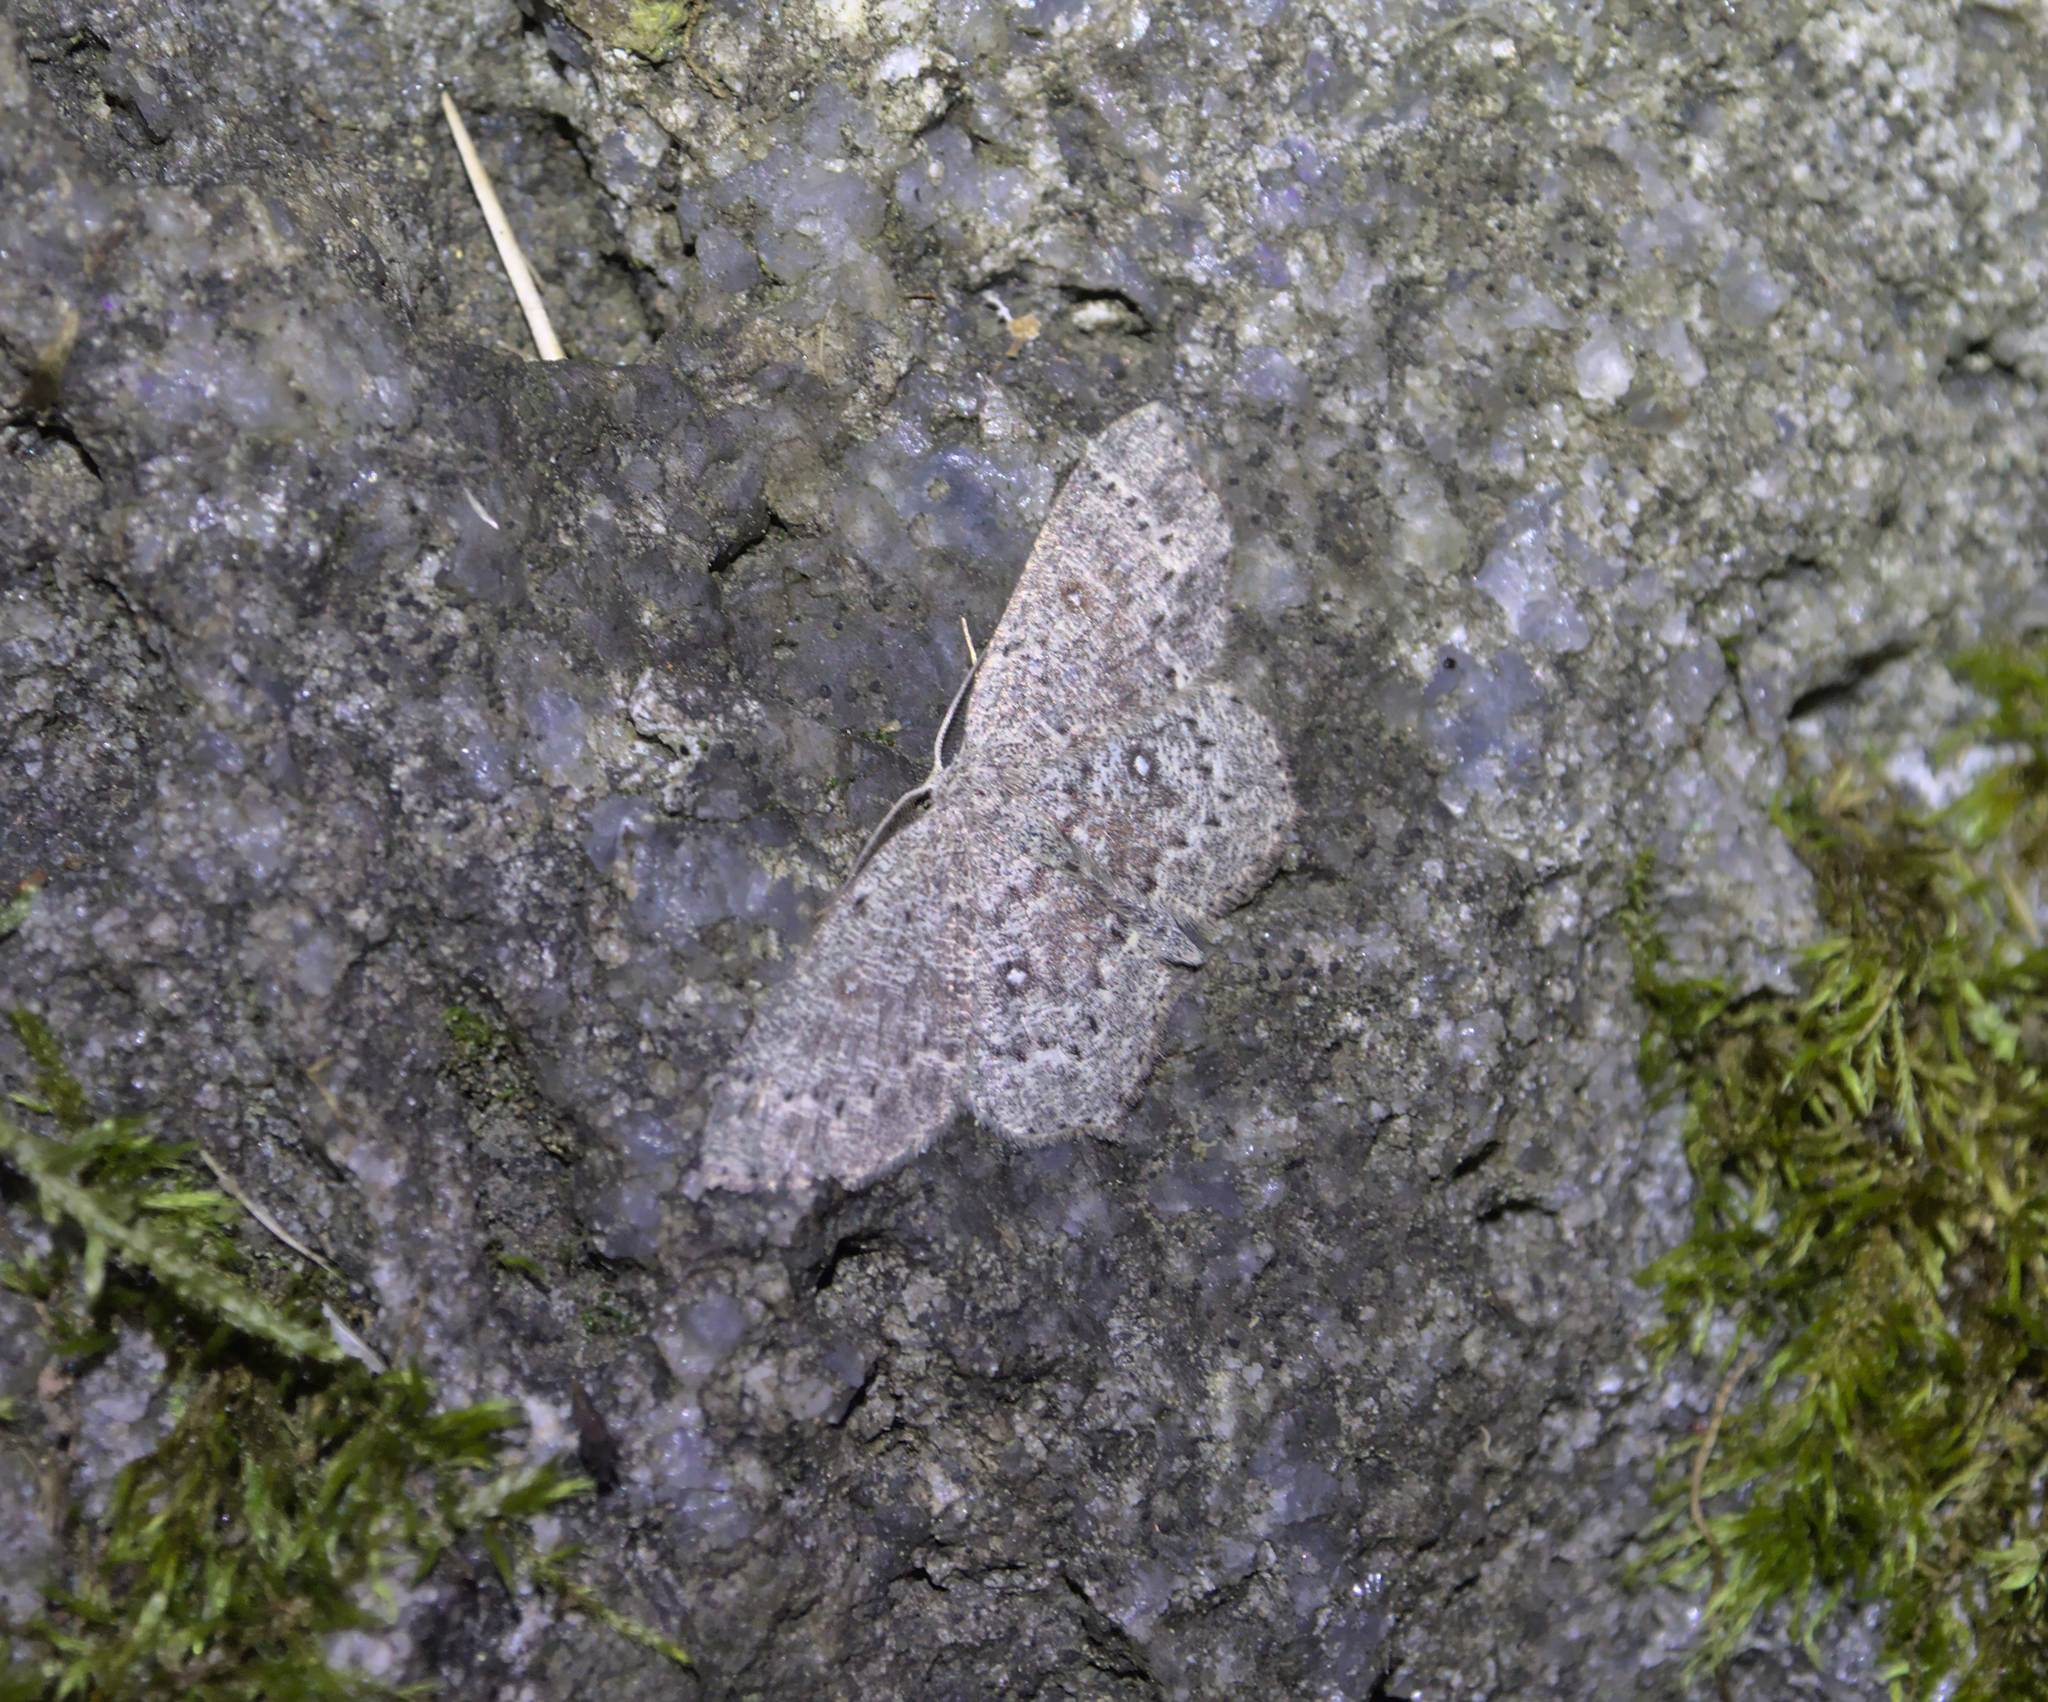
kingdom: Animalia
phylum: Arthropoda
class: Insecta
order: Lepidoptera
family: Geometridae
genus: Cyclophora
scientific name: Cyclophora pendularia
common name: Dingy mocha
